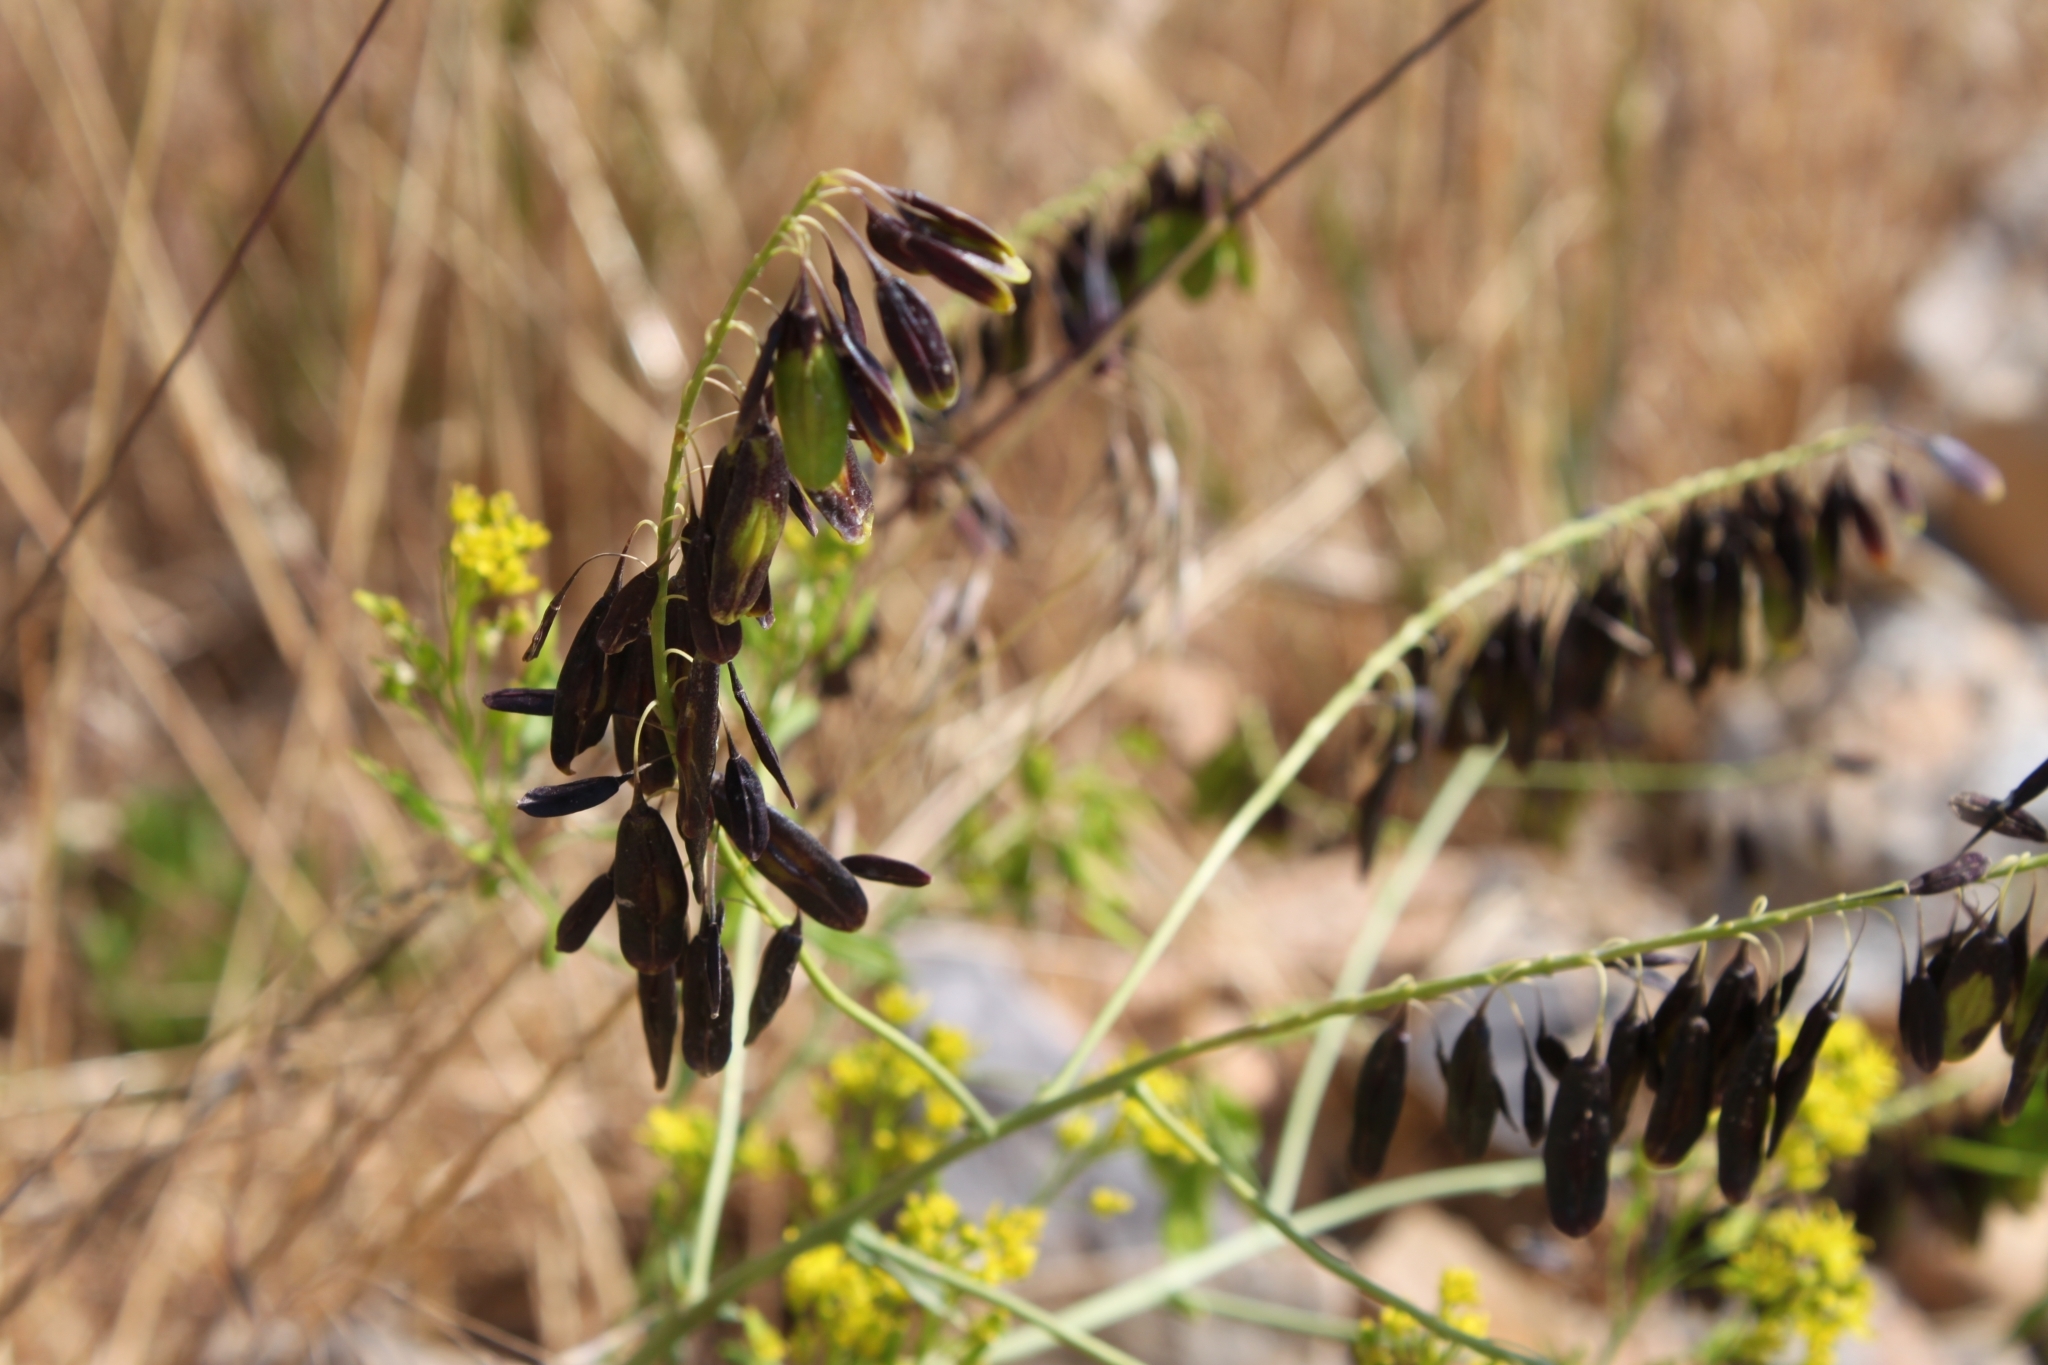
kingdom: Plantae
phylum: Tracheophyta
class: Magnoliopsida
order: Brassicales
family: Brassicaceae
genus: Isatis
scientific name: Isatis tinctoria
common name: Woad
